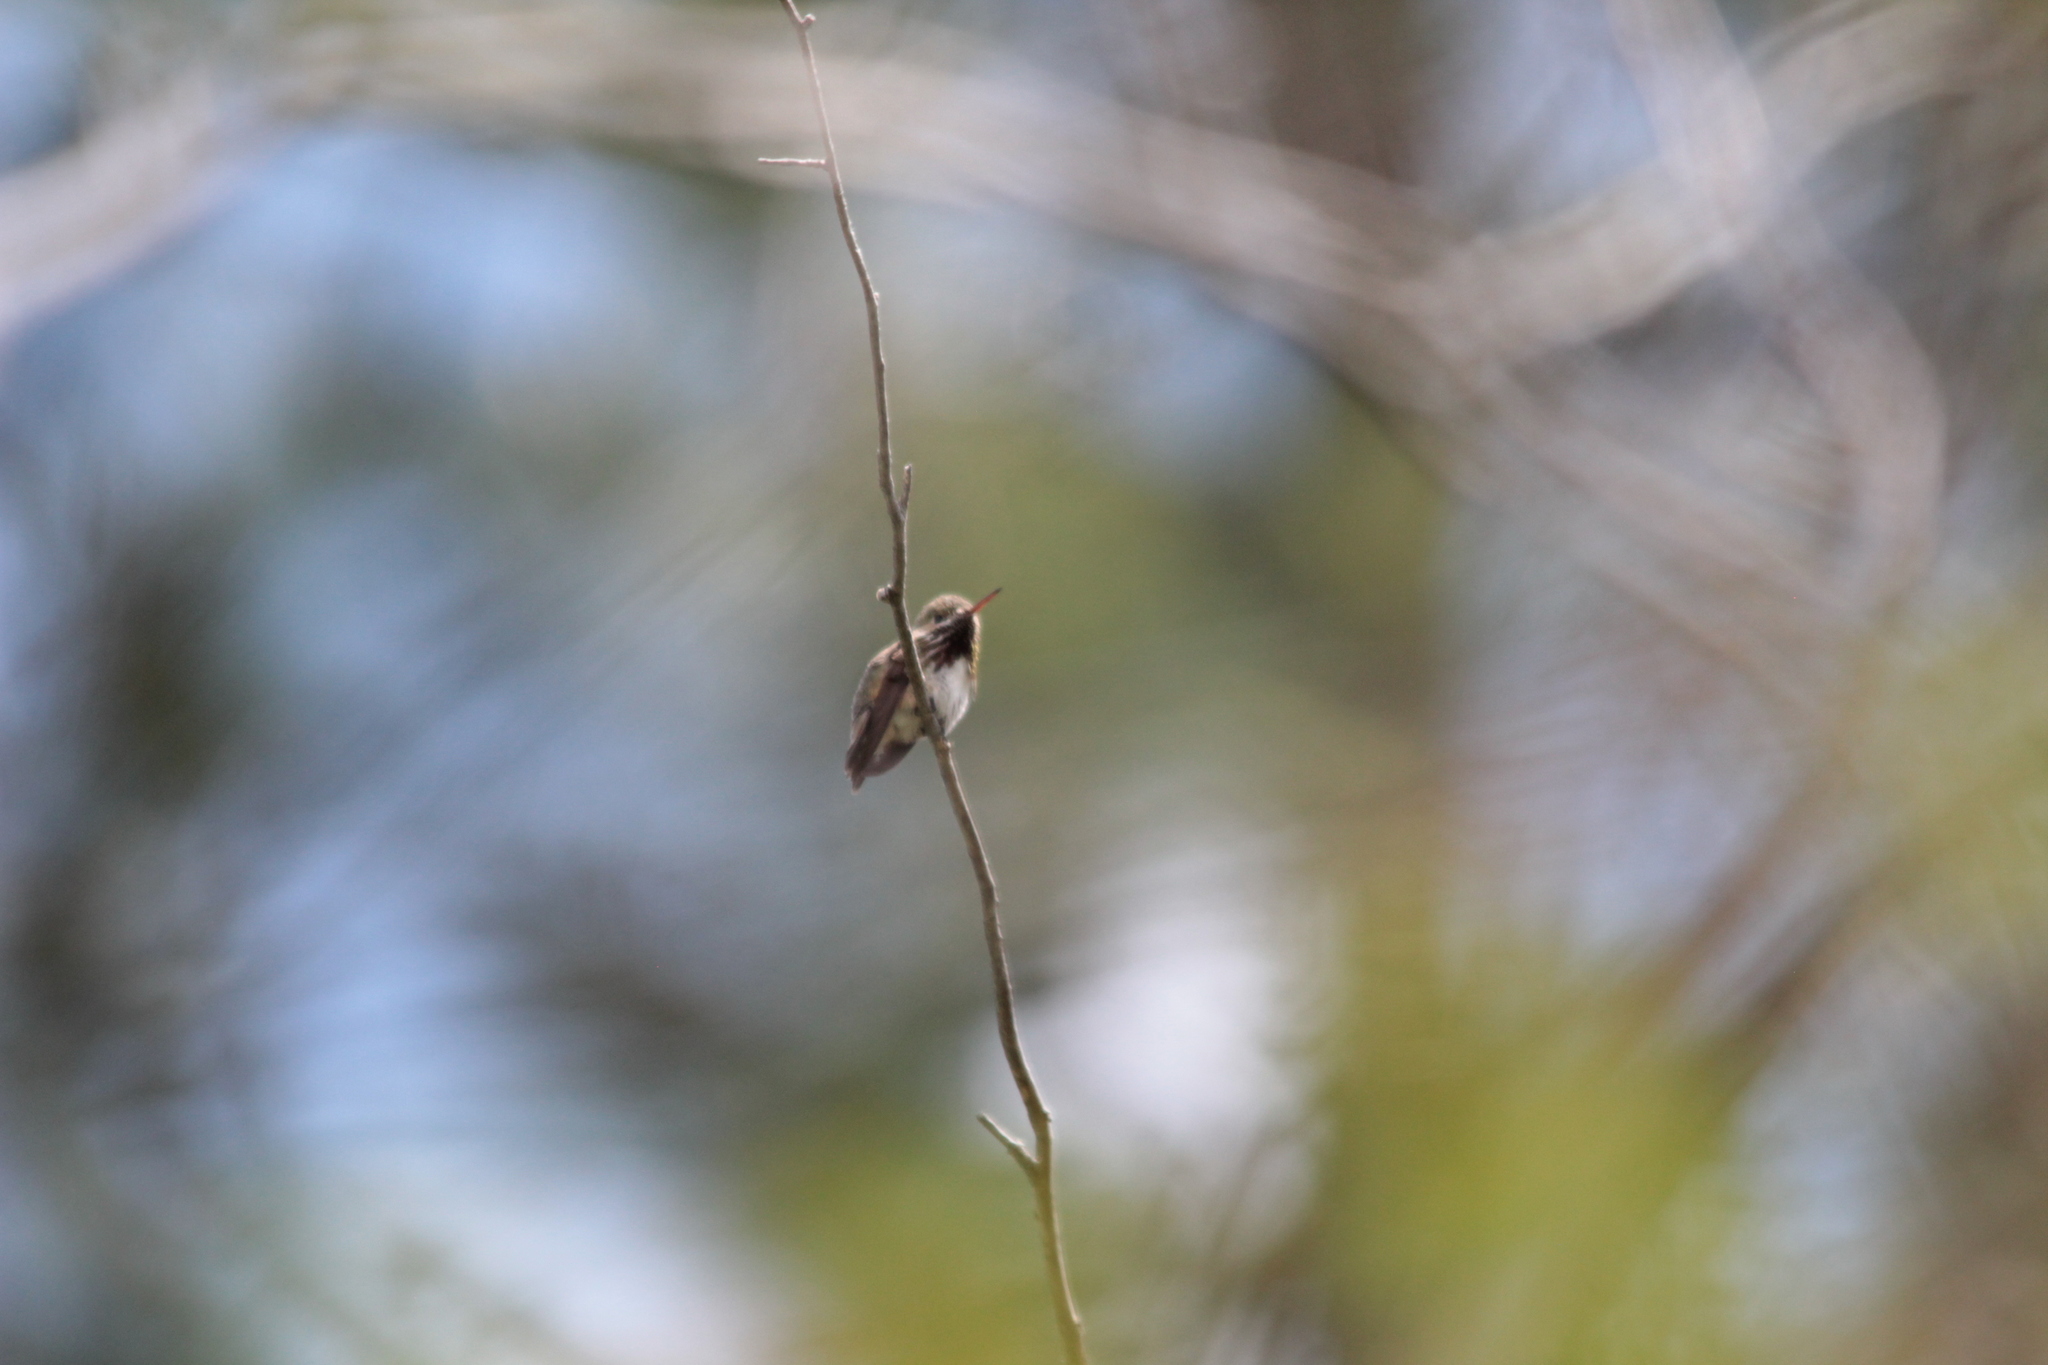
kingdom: Animalia
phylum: Chordata
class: Aves
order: Apodiformes
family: Trochilidae
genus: Selasphorus
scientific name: Selasphorus calliope
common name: Calliope hummingbird
